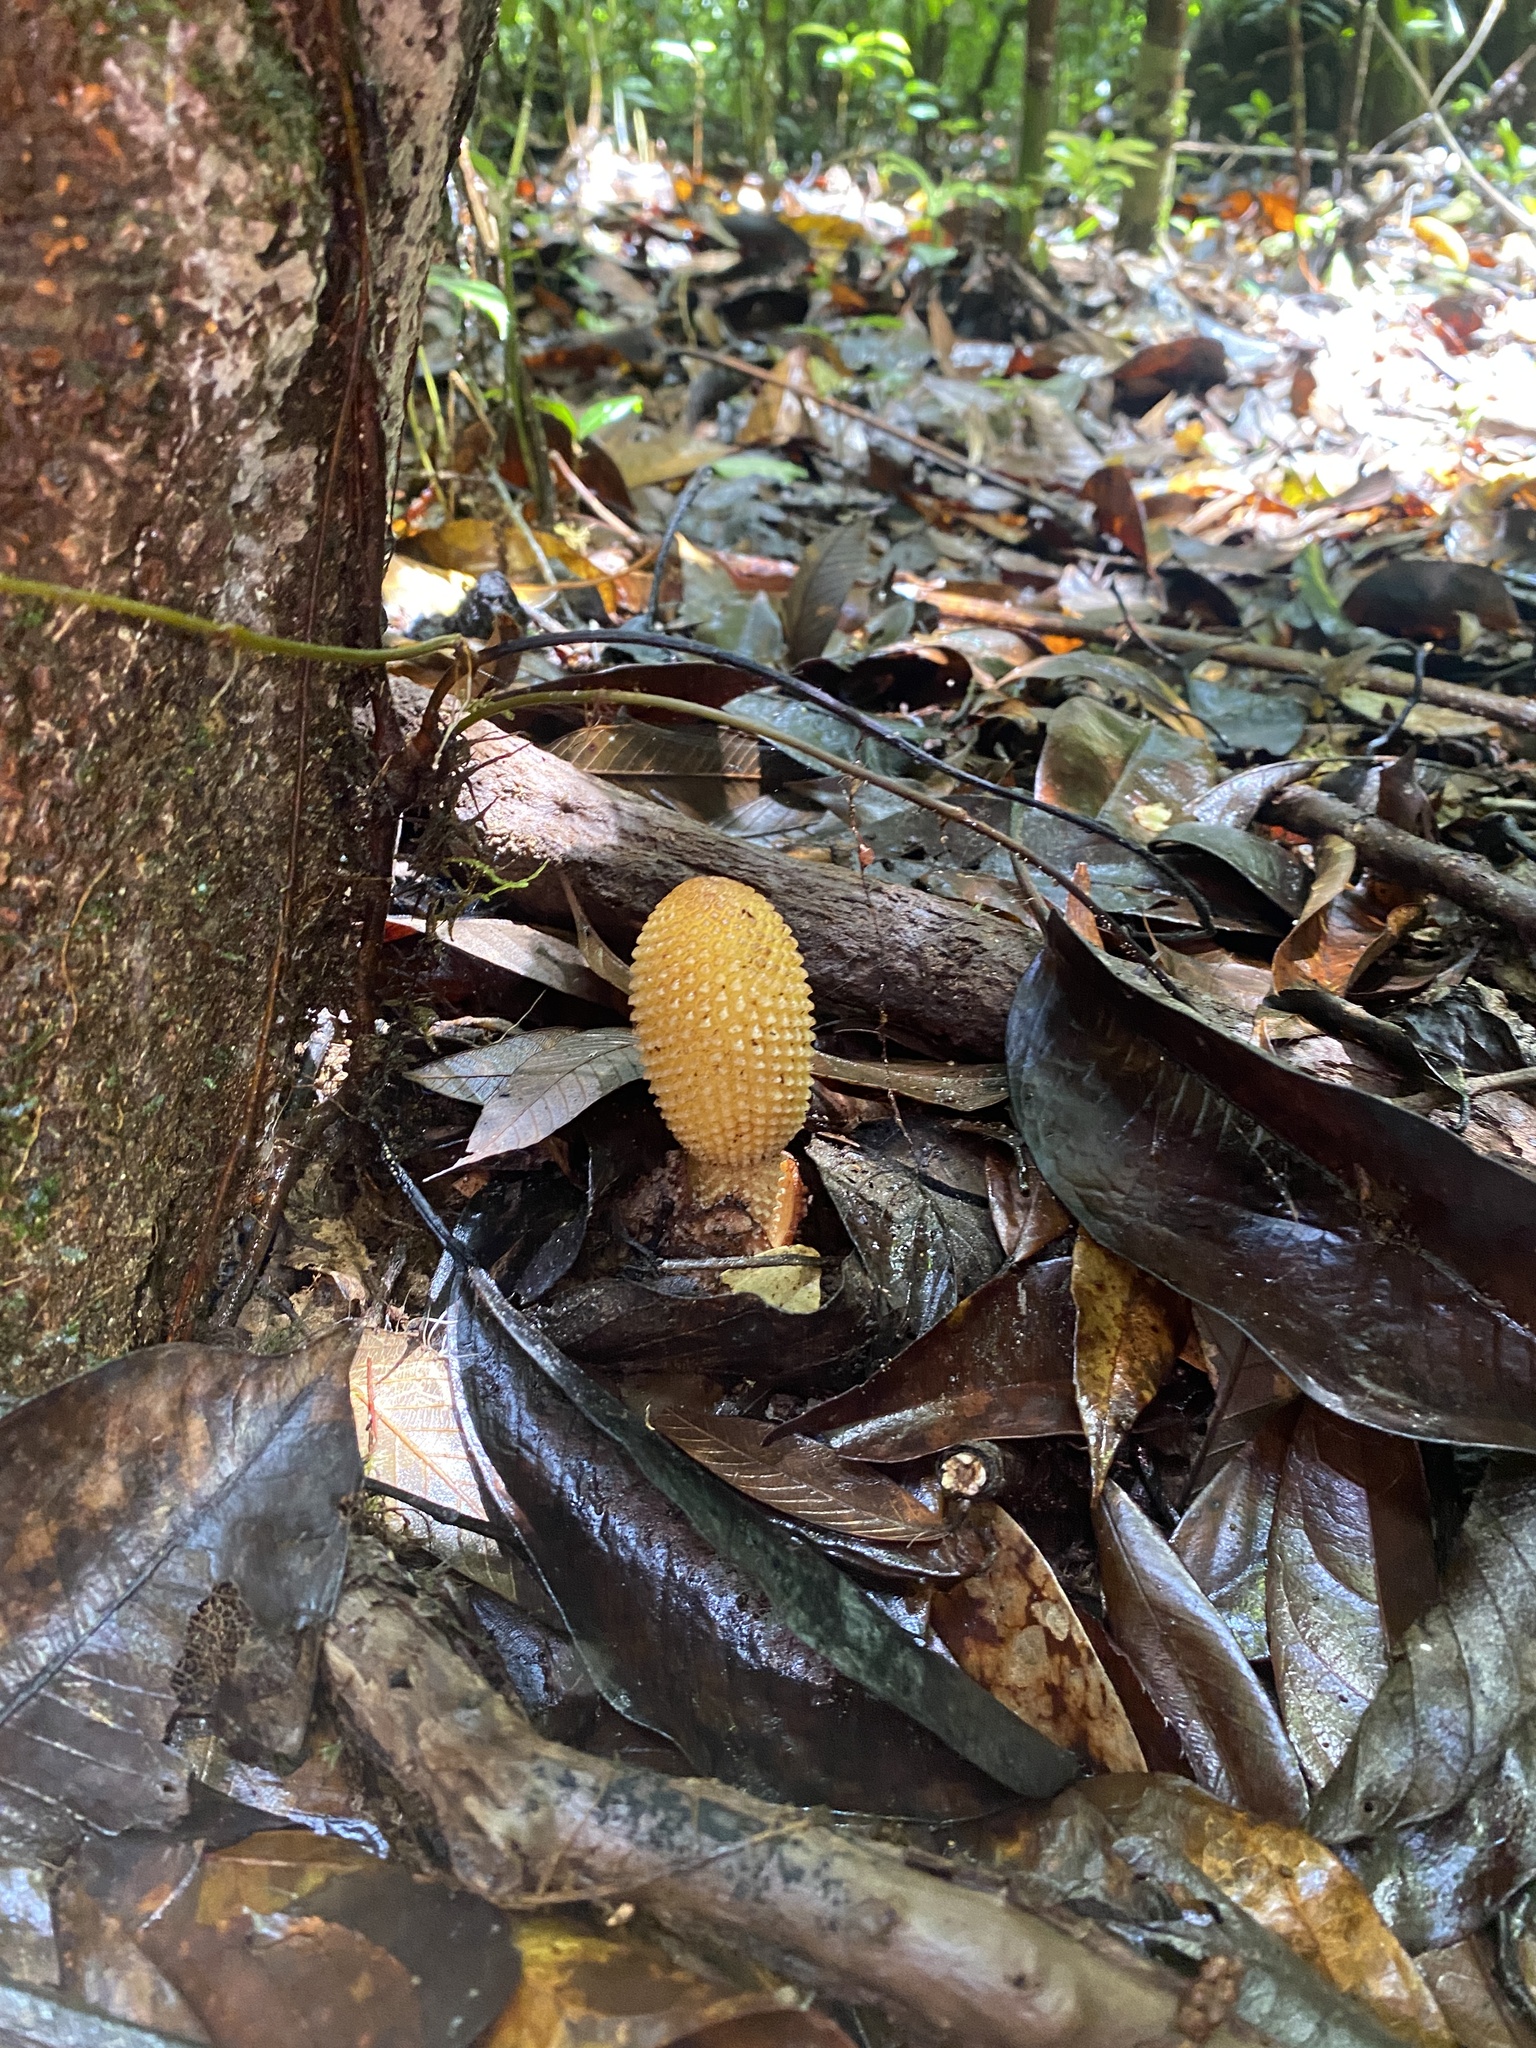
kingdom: Plantae
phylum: Tracheophyta
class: Magnoliopsida
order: Santalales
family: Balanophoraceae
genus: Rhopalocnemis
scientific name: Rhopalocnemis phalloides
